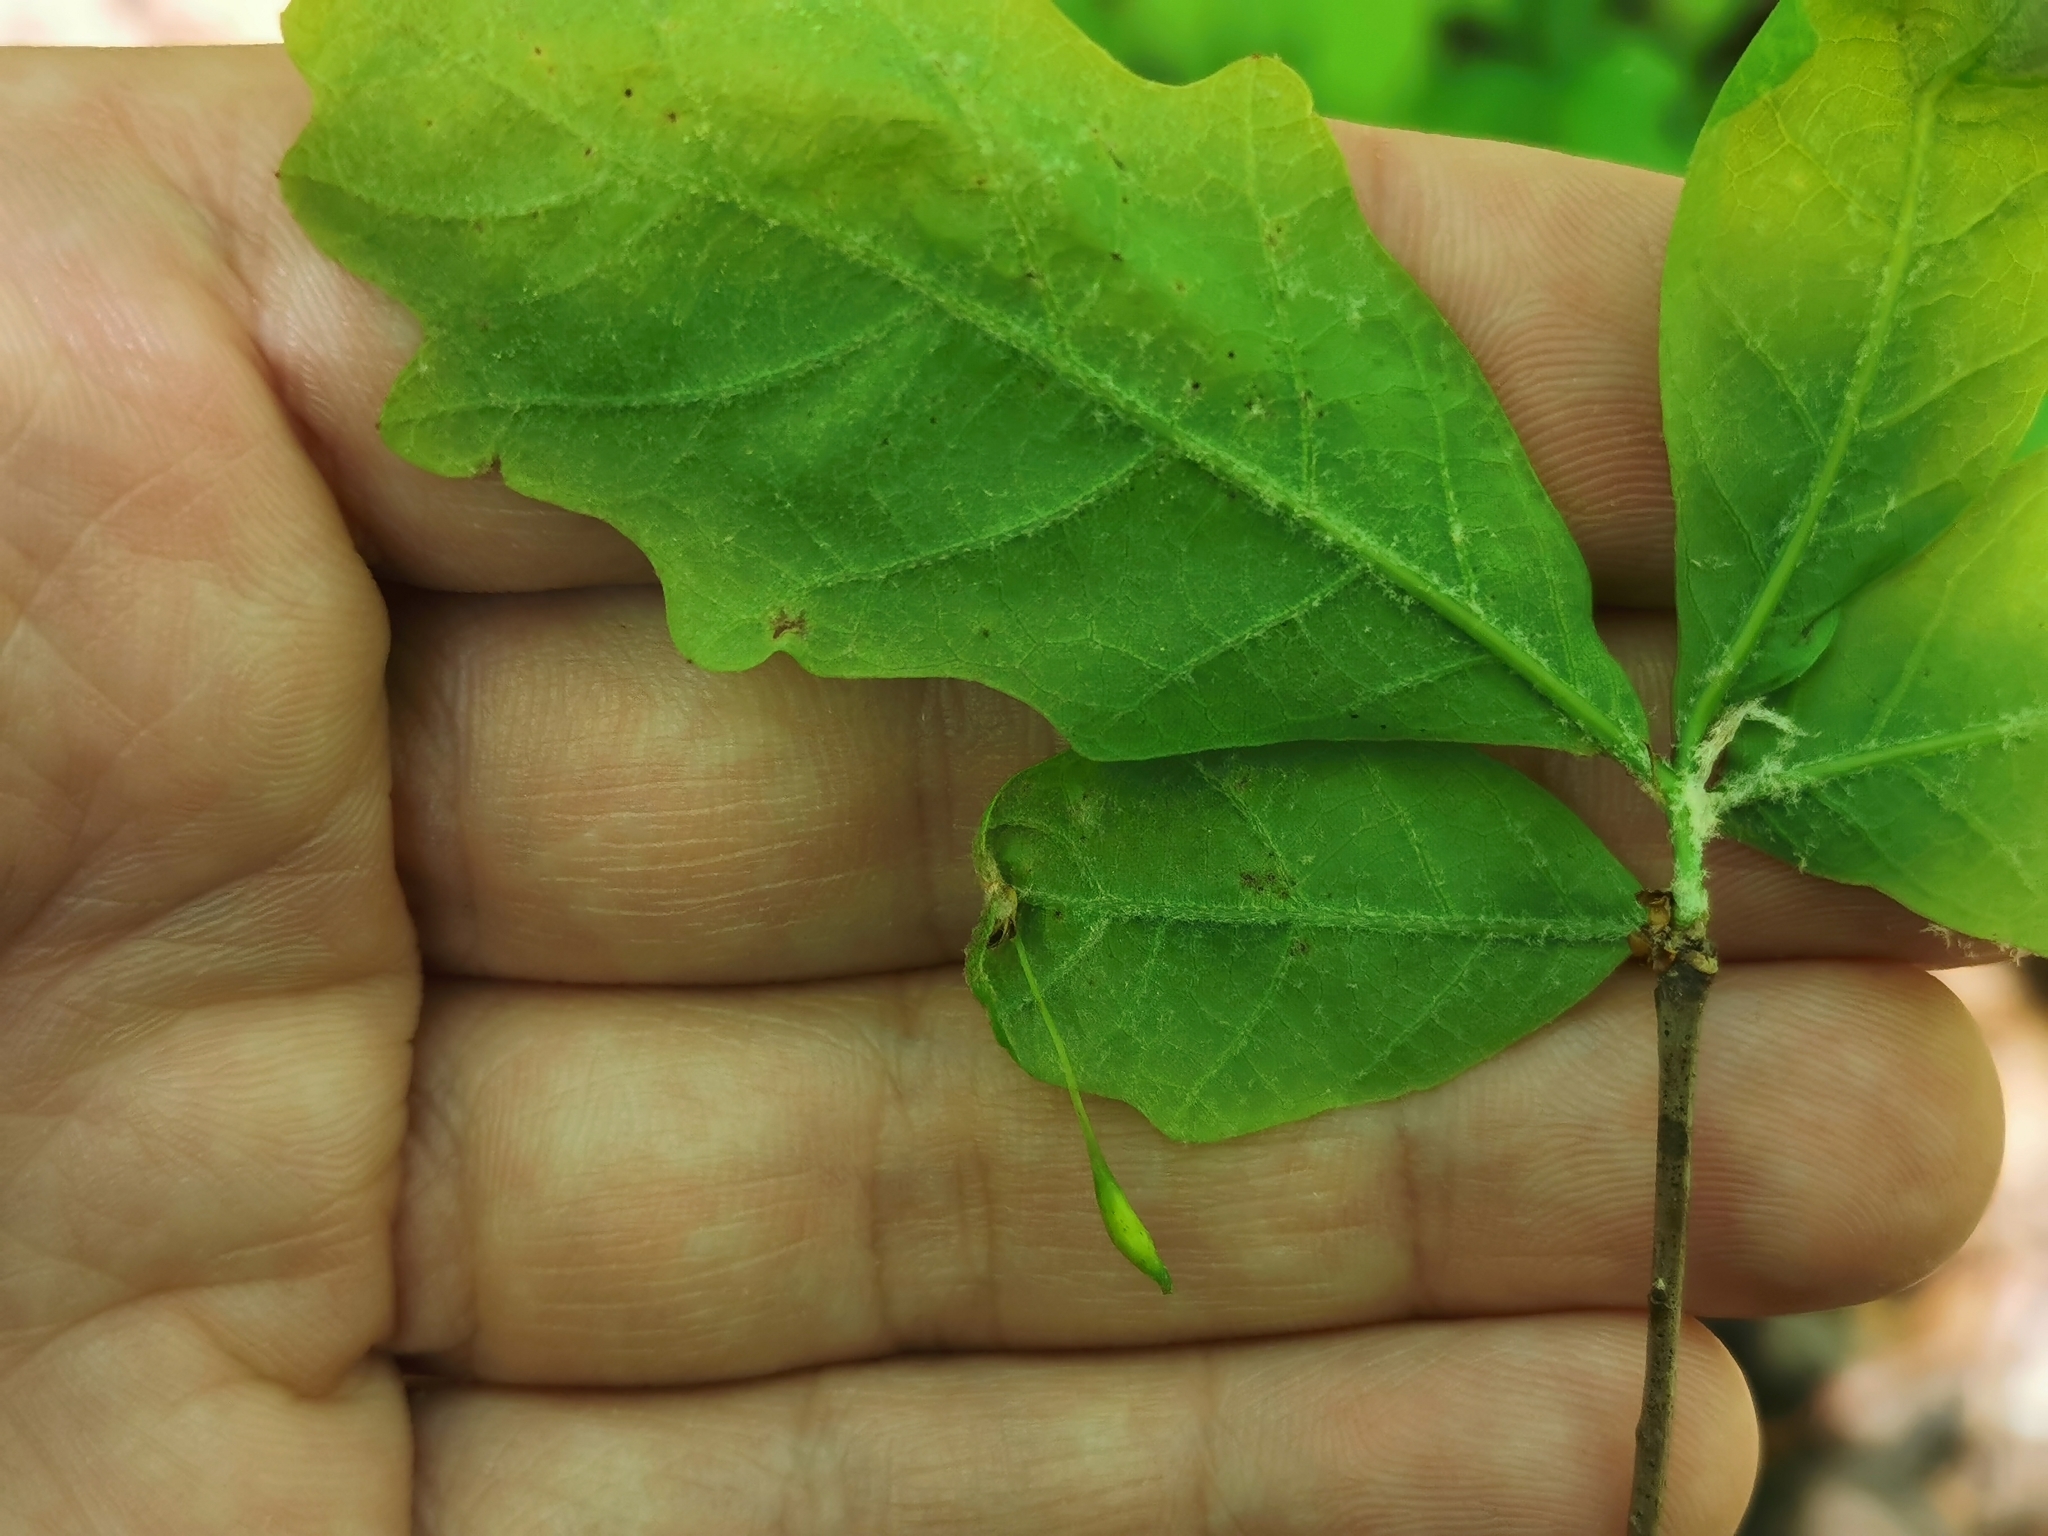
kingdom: Animalia
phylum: Arthropoda
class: Insecta
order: Hymenoptera
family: Cynipidae
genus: Andricus
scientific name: Andricus
